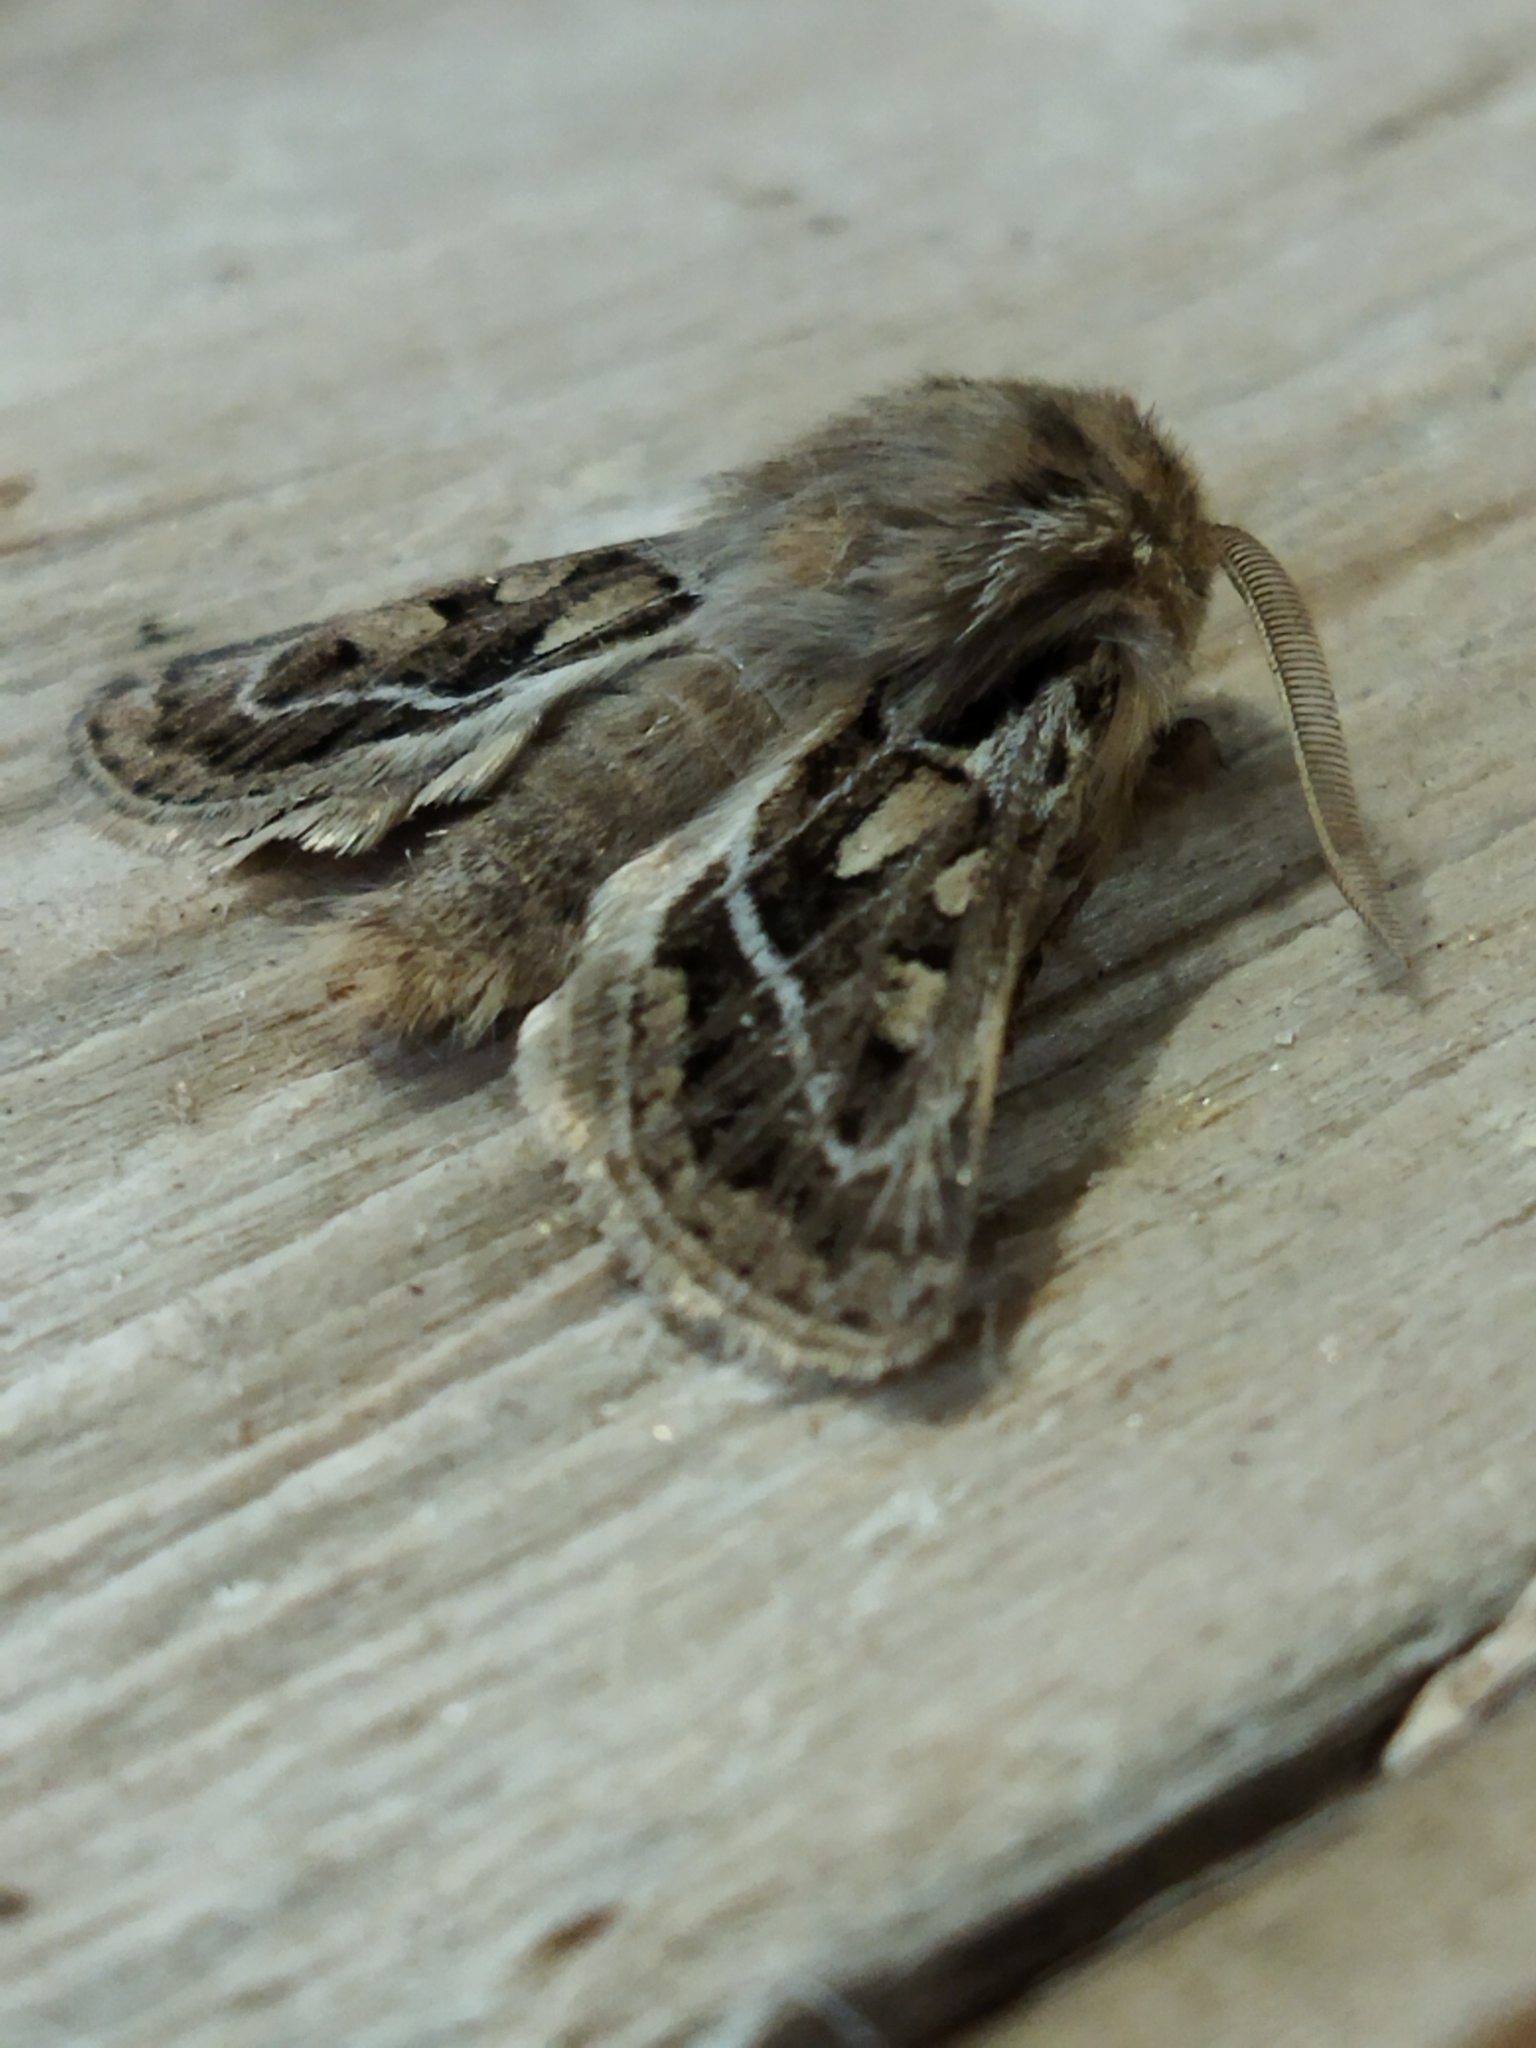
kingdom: Animalia
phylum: Arthropoda
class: Insecta
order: Lepidoptera
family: Noctuidae
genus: Ulochlaena
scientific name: Ulochlaena hirta
